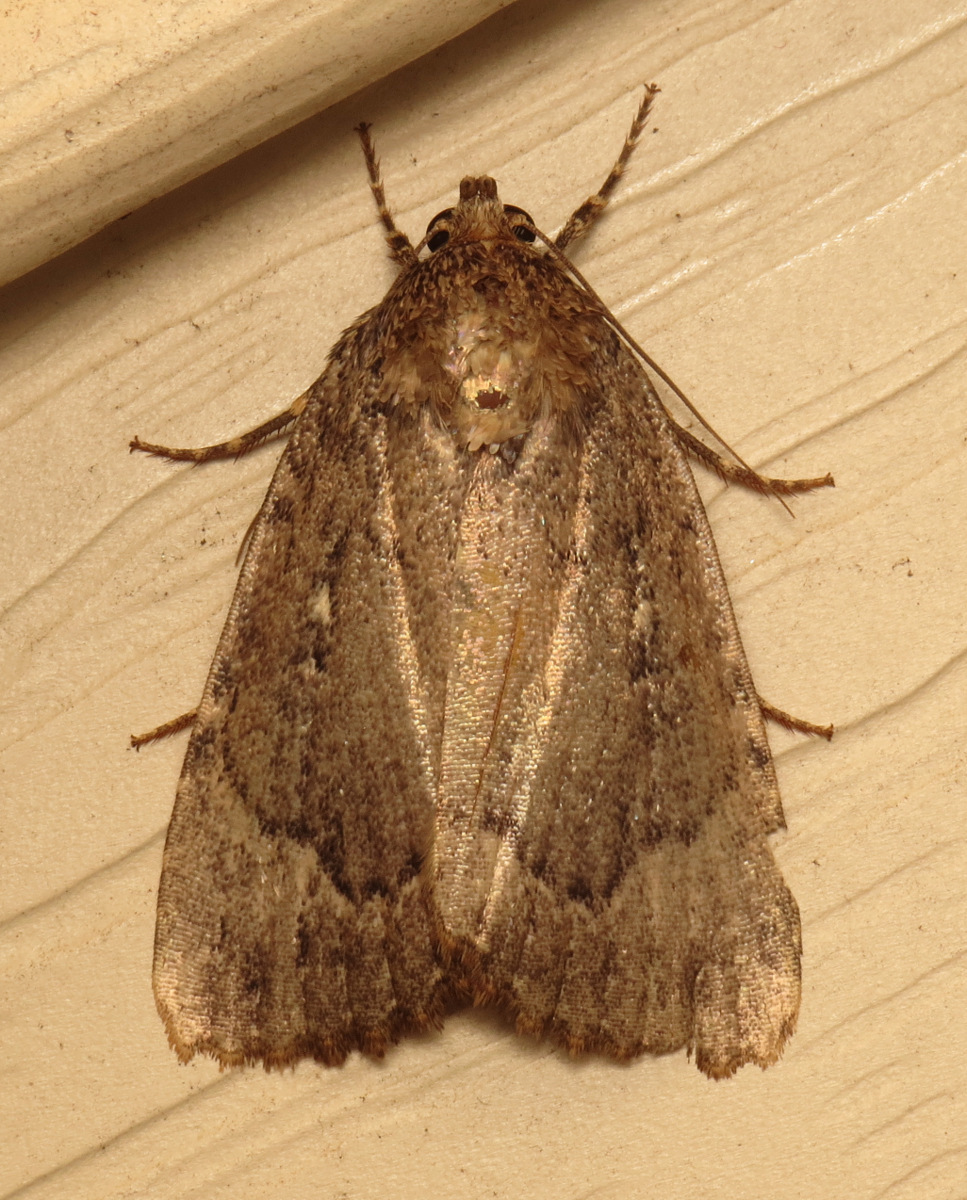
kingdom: Animalia
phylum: Arthropoda
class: Insecta
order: Lepidoptera
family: Noctuidae
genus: Amphipyra
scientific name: Amphipyra pyramidoides
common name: American copper underwing
